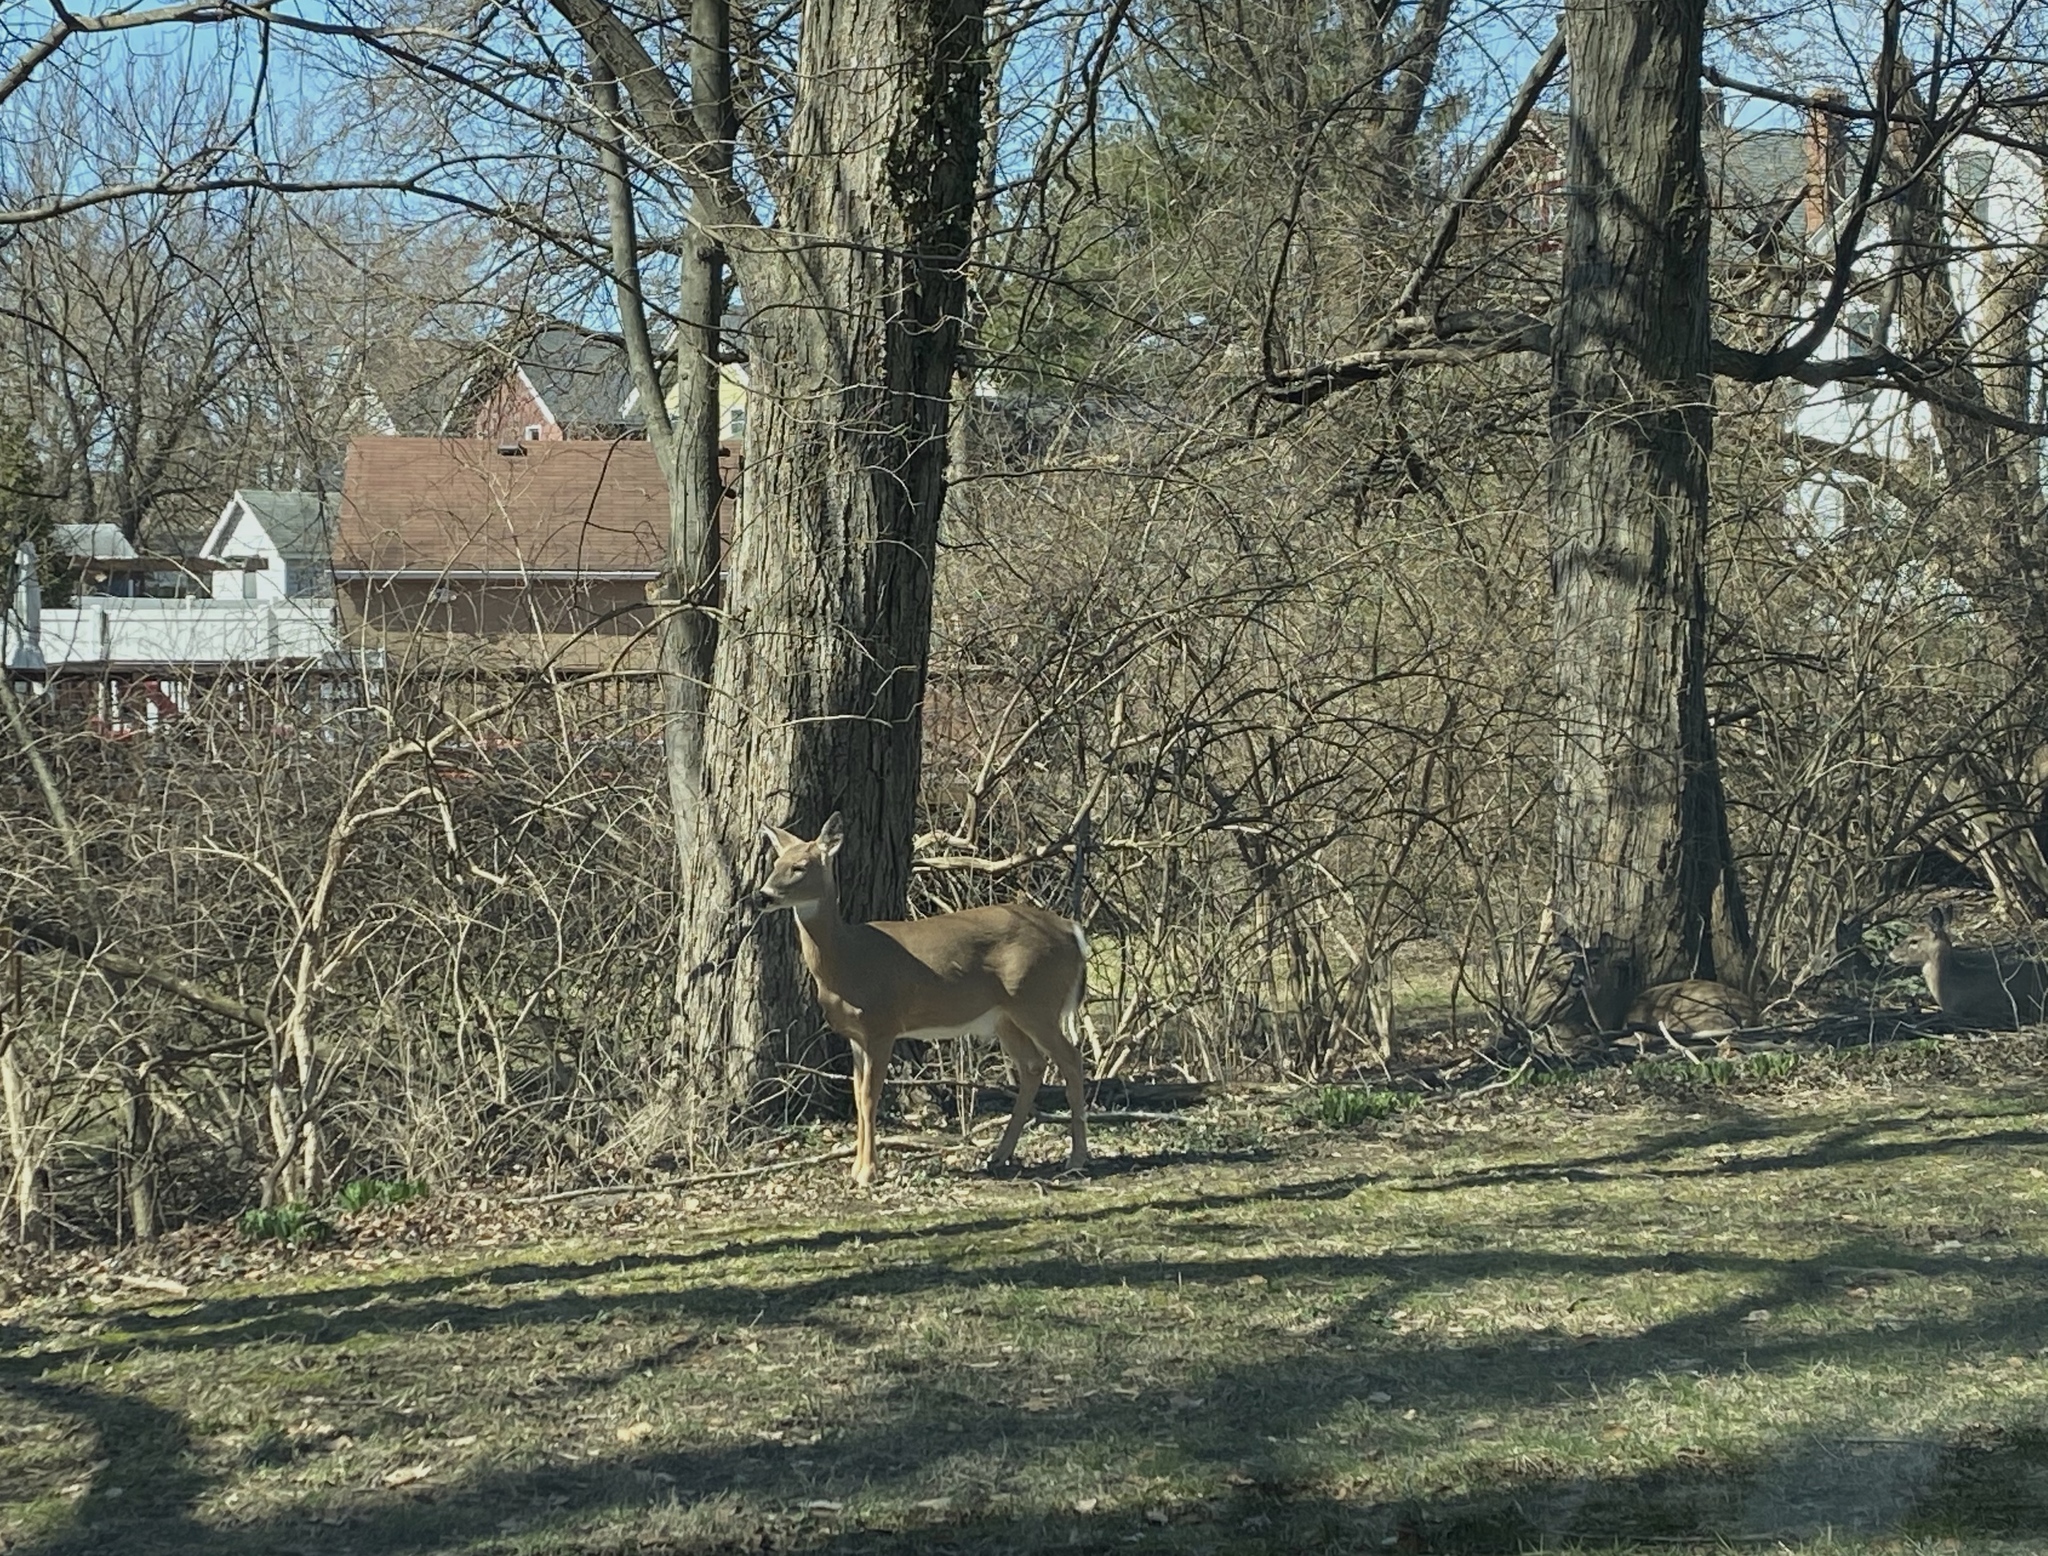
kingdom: Animalia
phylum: Chordata
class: Mammalia
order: Artiodactyla
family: Cervidae
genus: Odocoileus
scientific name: Odocoileus virginianus
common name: White-tailed deer
